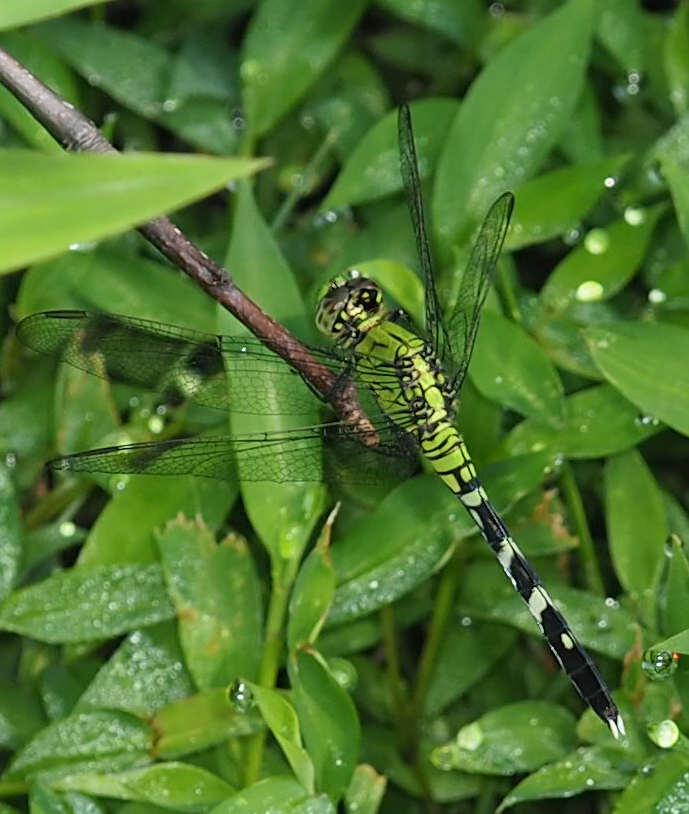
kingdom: Animalia
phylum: Arthropoda
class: Insecta
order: Odonata
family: Libellulidae
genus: Erythemis
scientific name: Erythemis simplicicollis
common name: Eastern pondhawk
